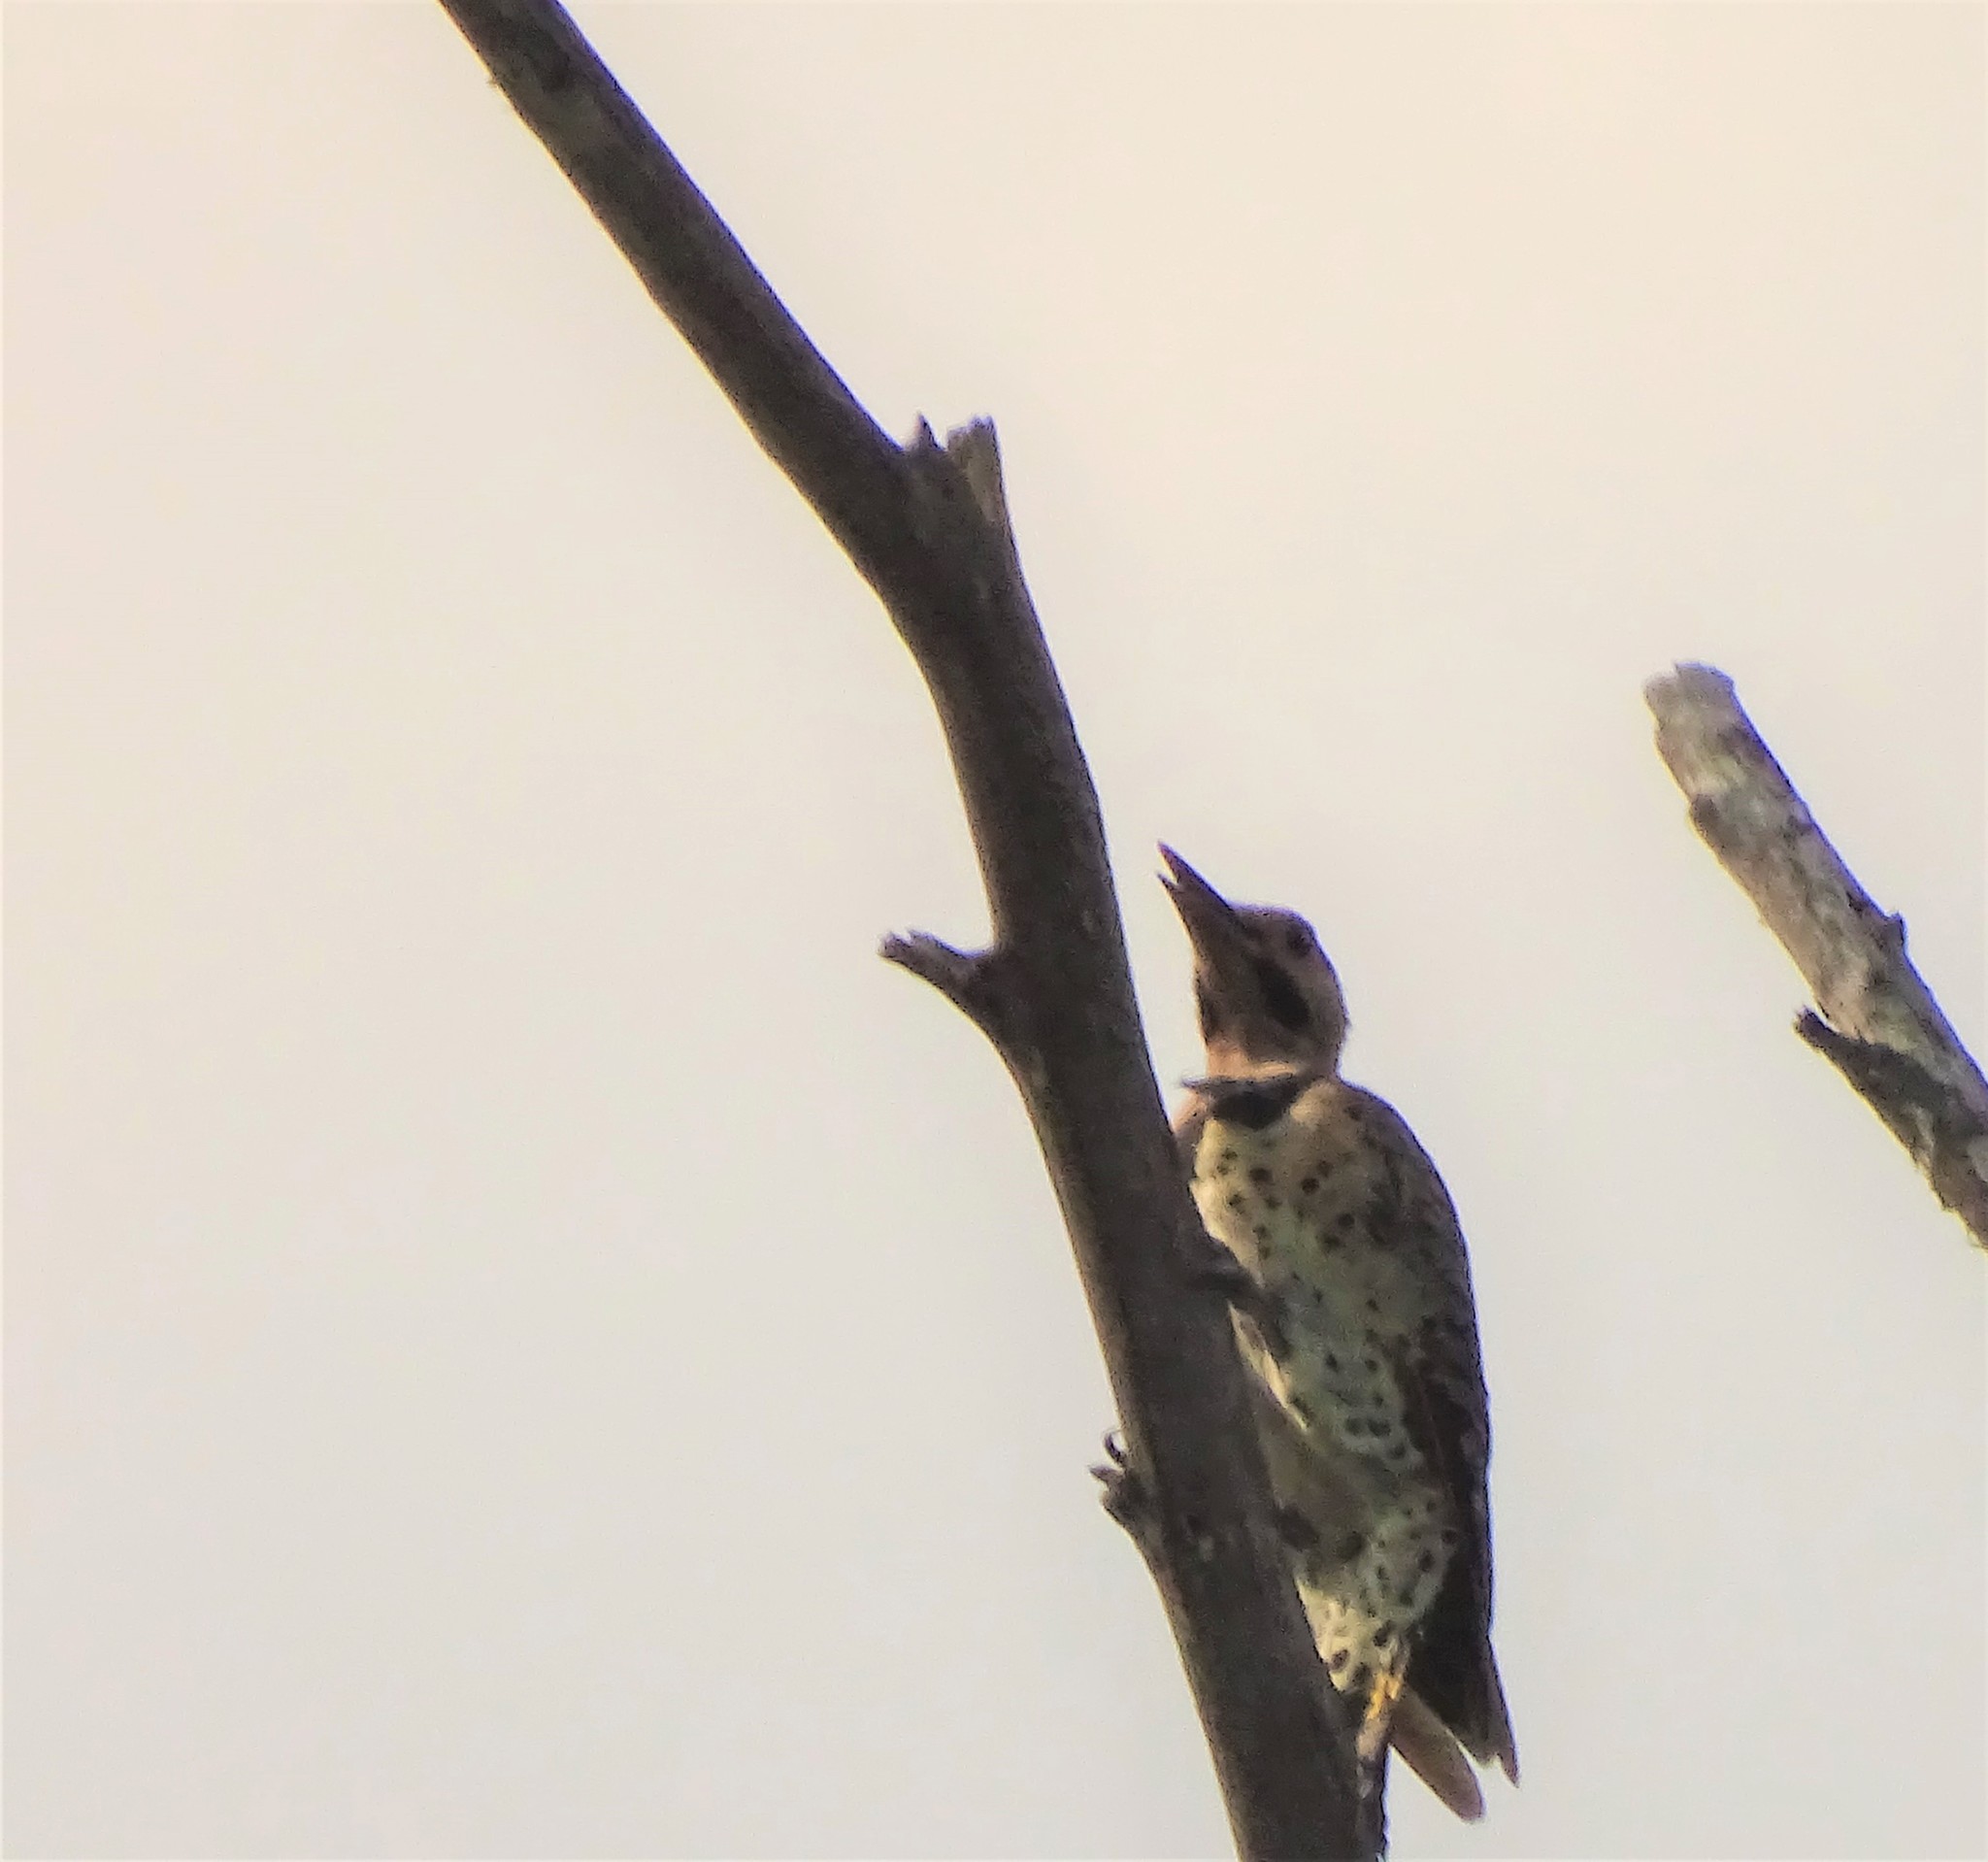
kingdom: Animalia
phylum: Chordata
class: Aves
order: Piciformes
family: Picidae
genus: Colaptes
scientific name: Colaptes auratus
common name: Northern flicker
